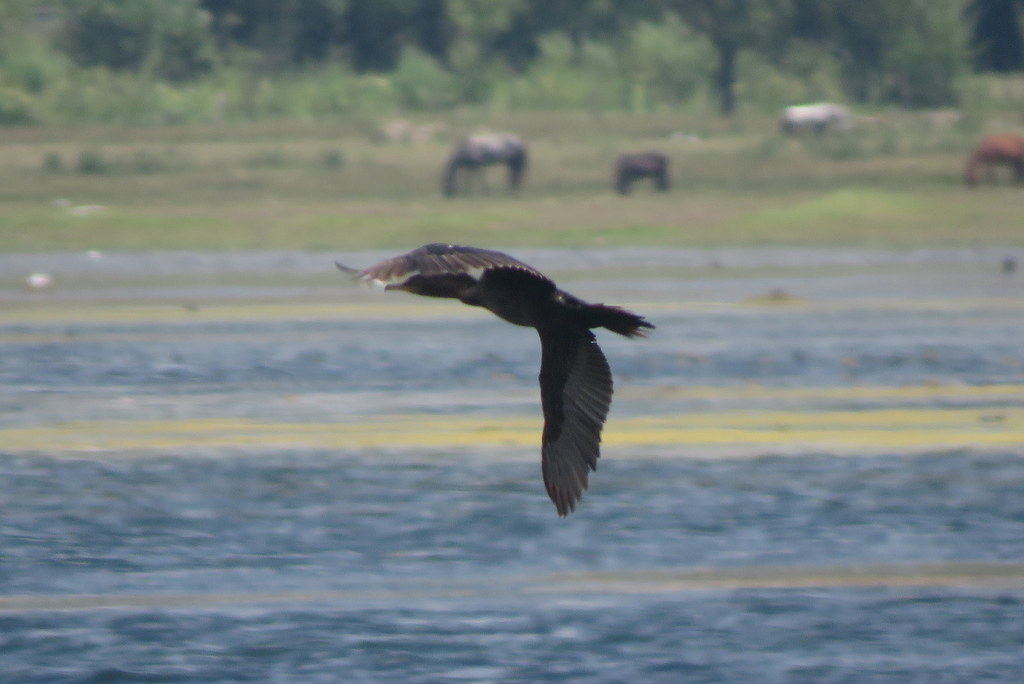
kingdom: Animalia
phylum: Chordata
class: Aves
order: Suliformes
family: Phalacrocoracidae
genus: Phalacrocorax
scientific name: Phalacrocorax brasilianus
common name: Neotropic cormorant
